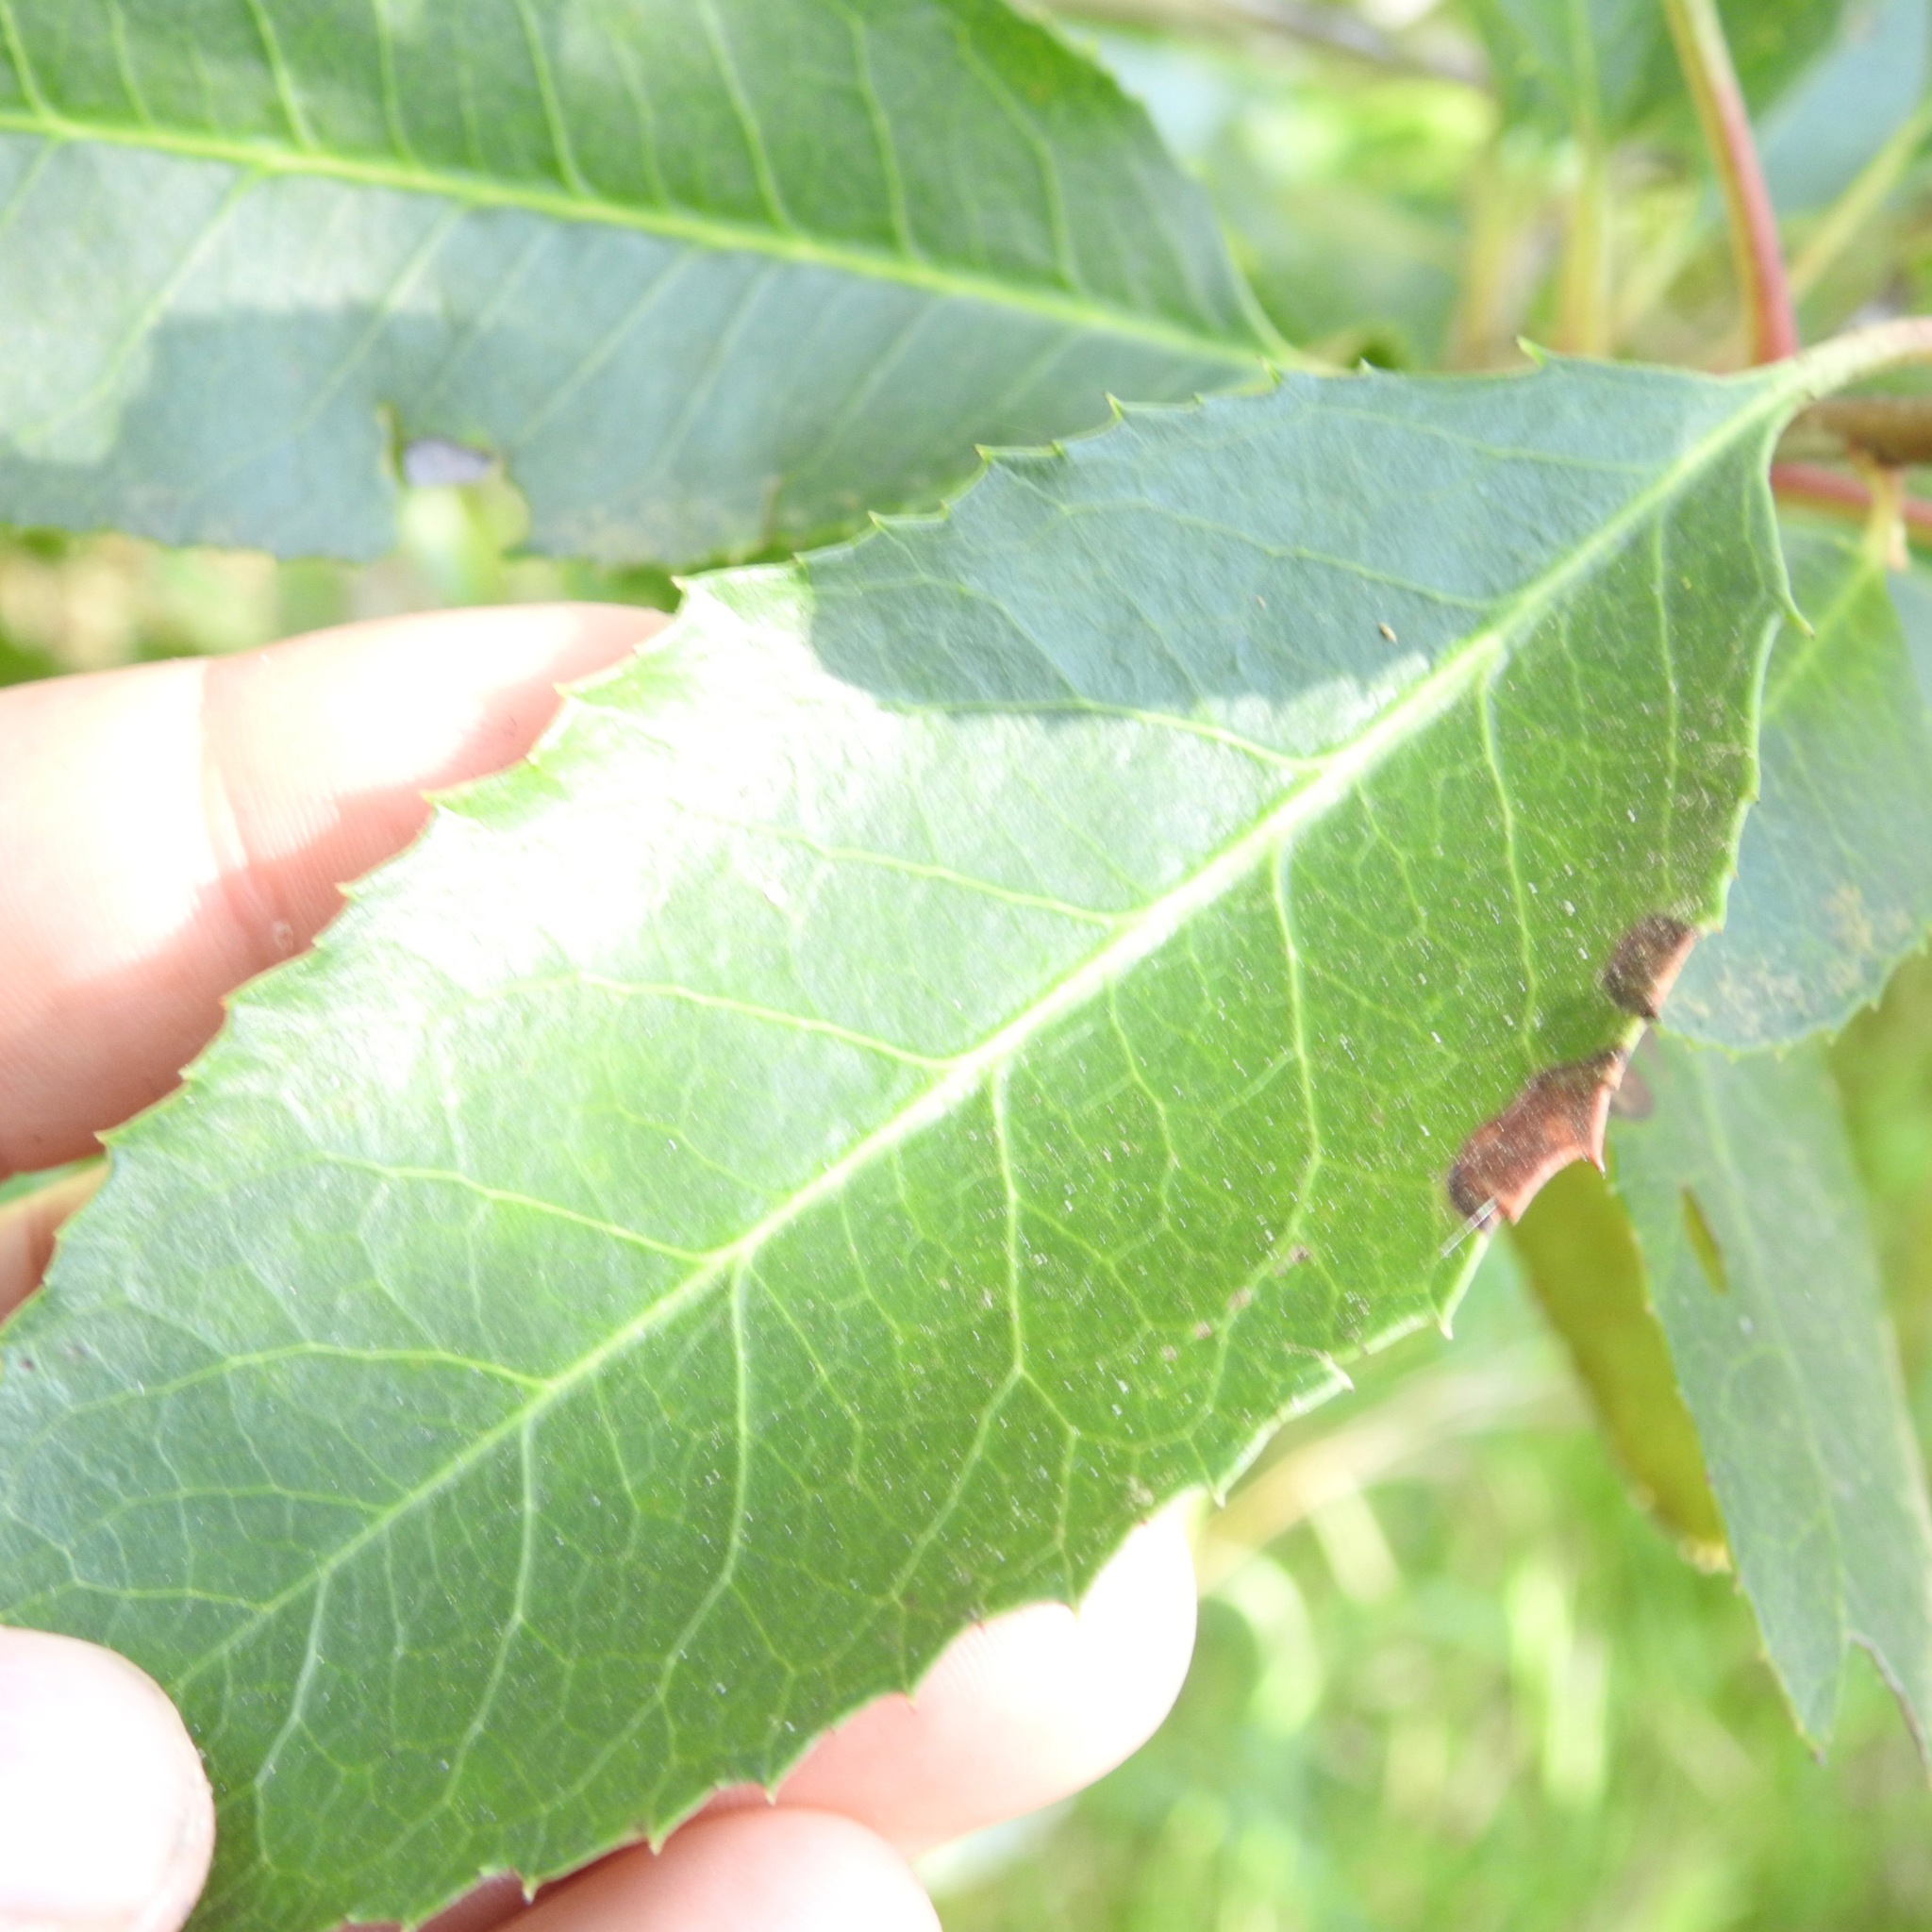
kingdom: Plantae
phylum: Tracheophyta
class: Magnoliopsida
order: Rosales
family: Rosaceae
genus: Heteromeles
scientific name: Heteromeles arbutifolia
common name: California-holly
